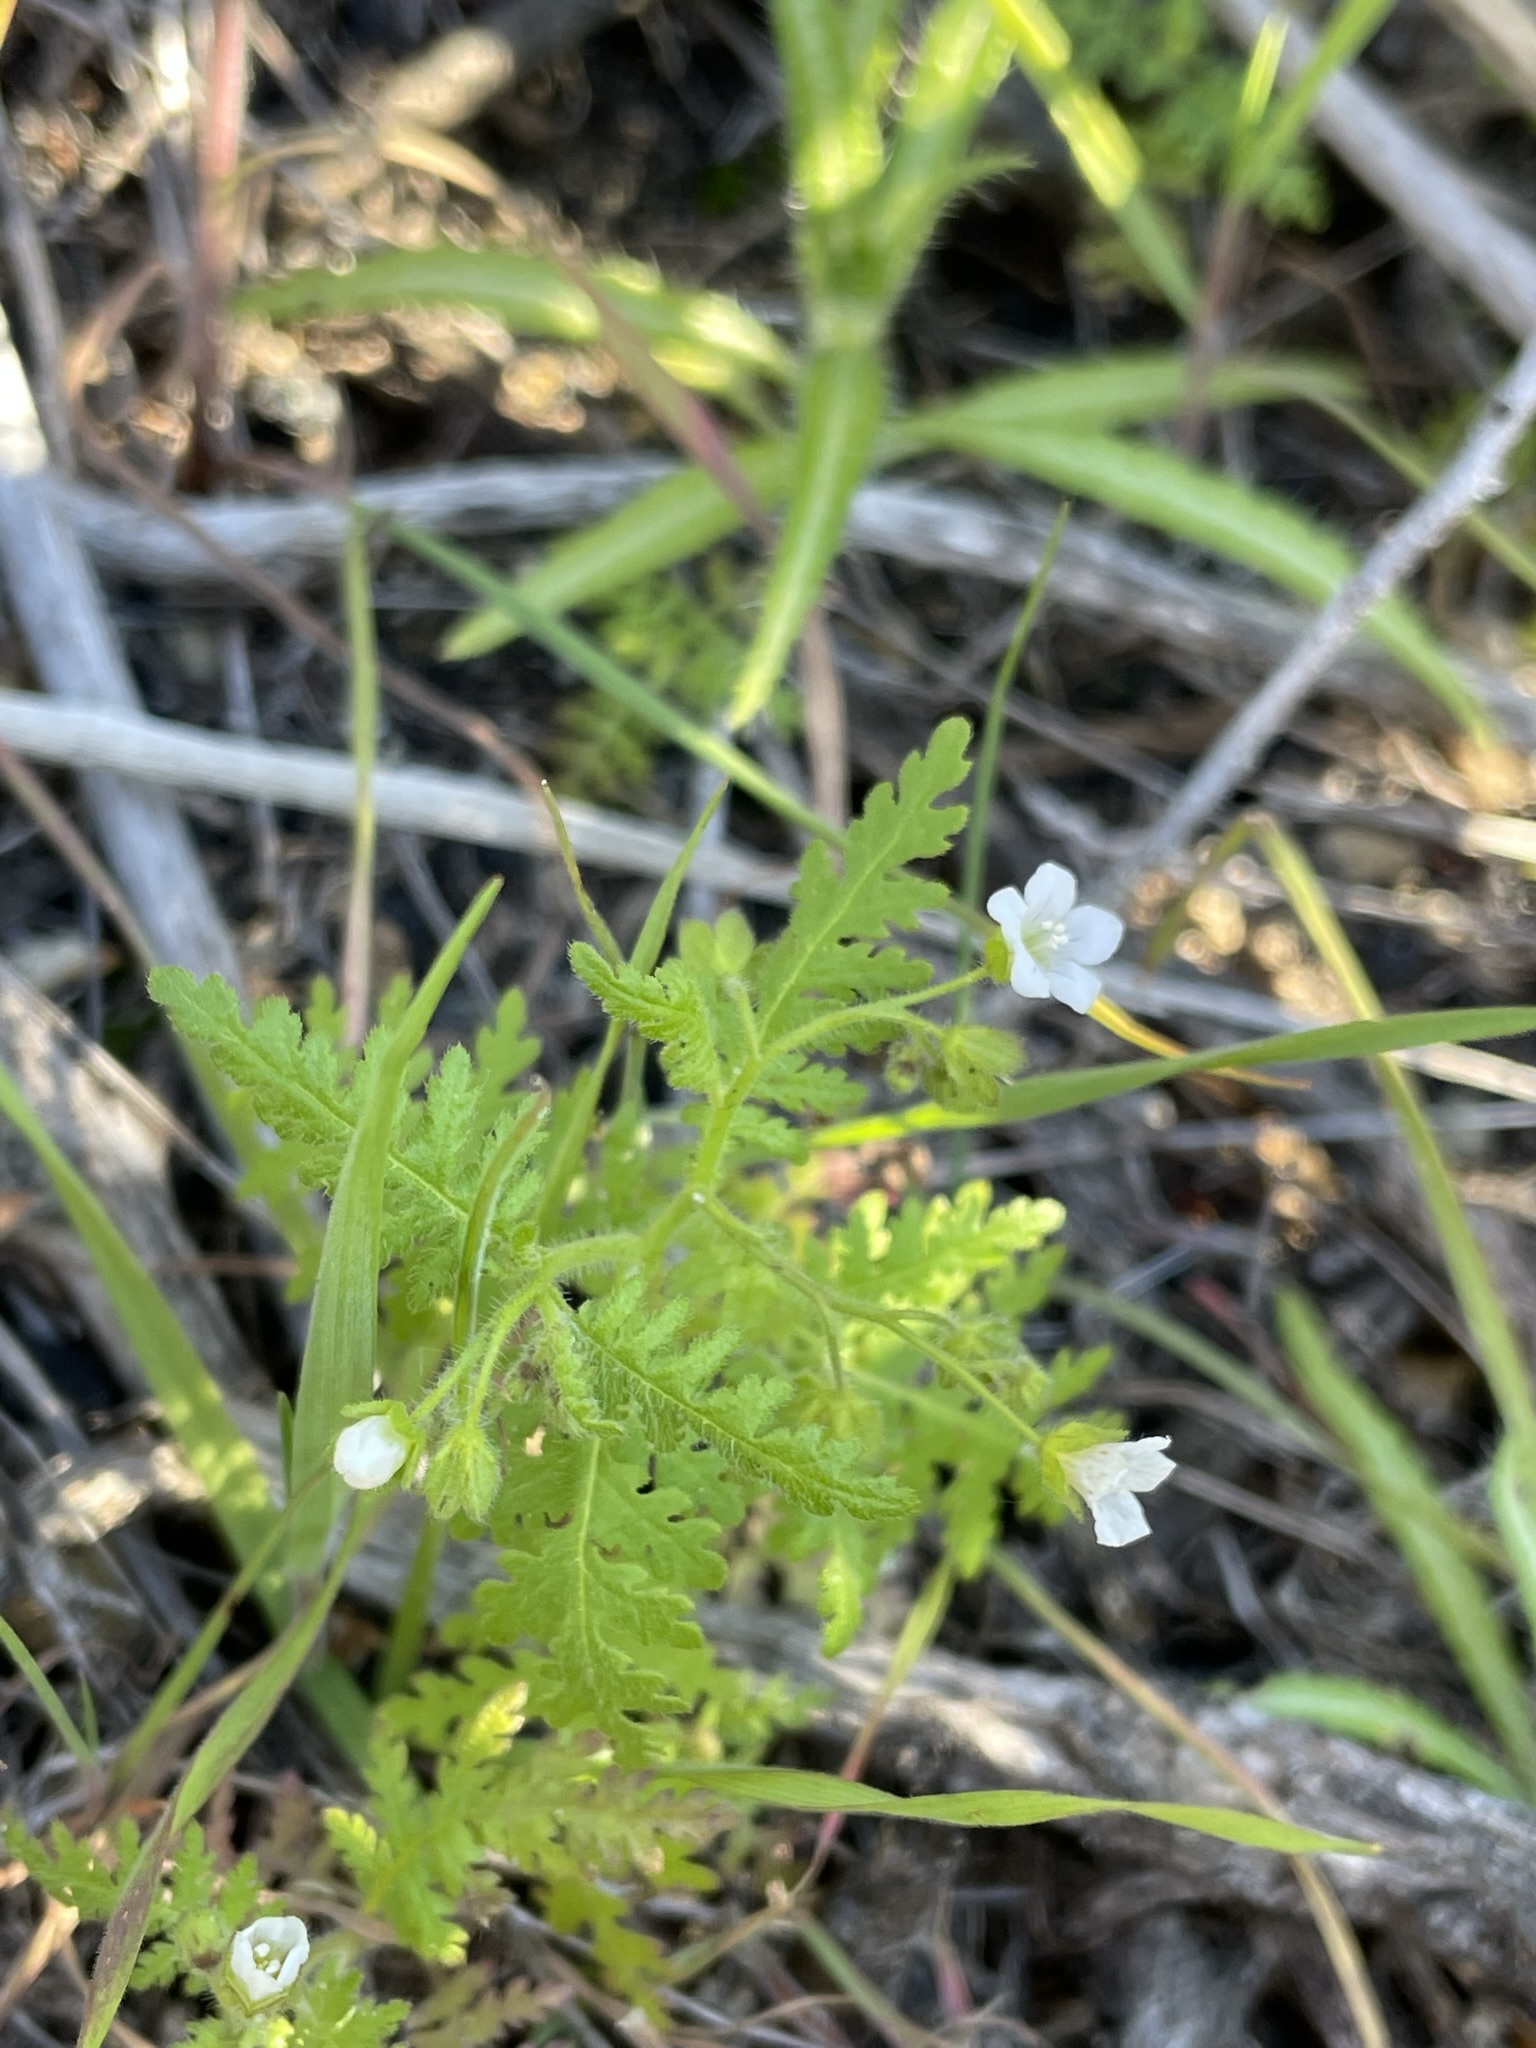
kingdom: Plantae
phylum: Tracheophyta
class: Magnoliopsida
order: Boraginales
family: Hydrophyllaceae
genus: Eucrypta
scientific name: Eucrypta chrysanthemifolia
